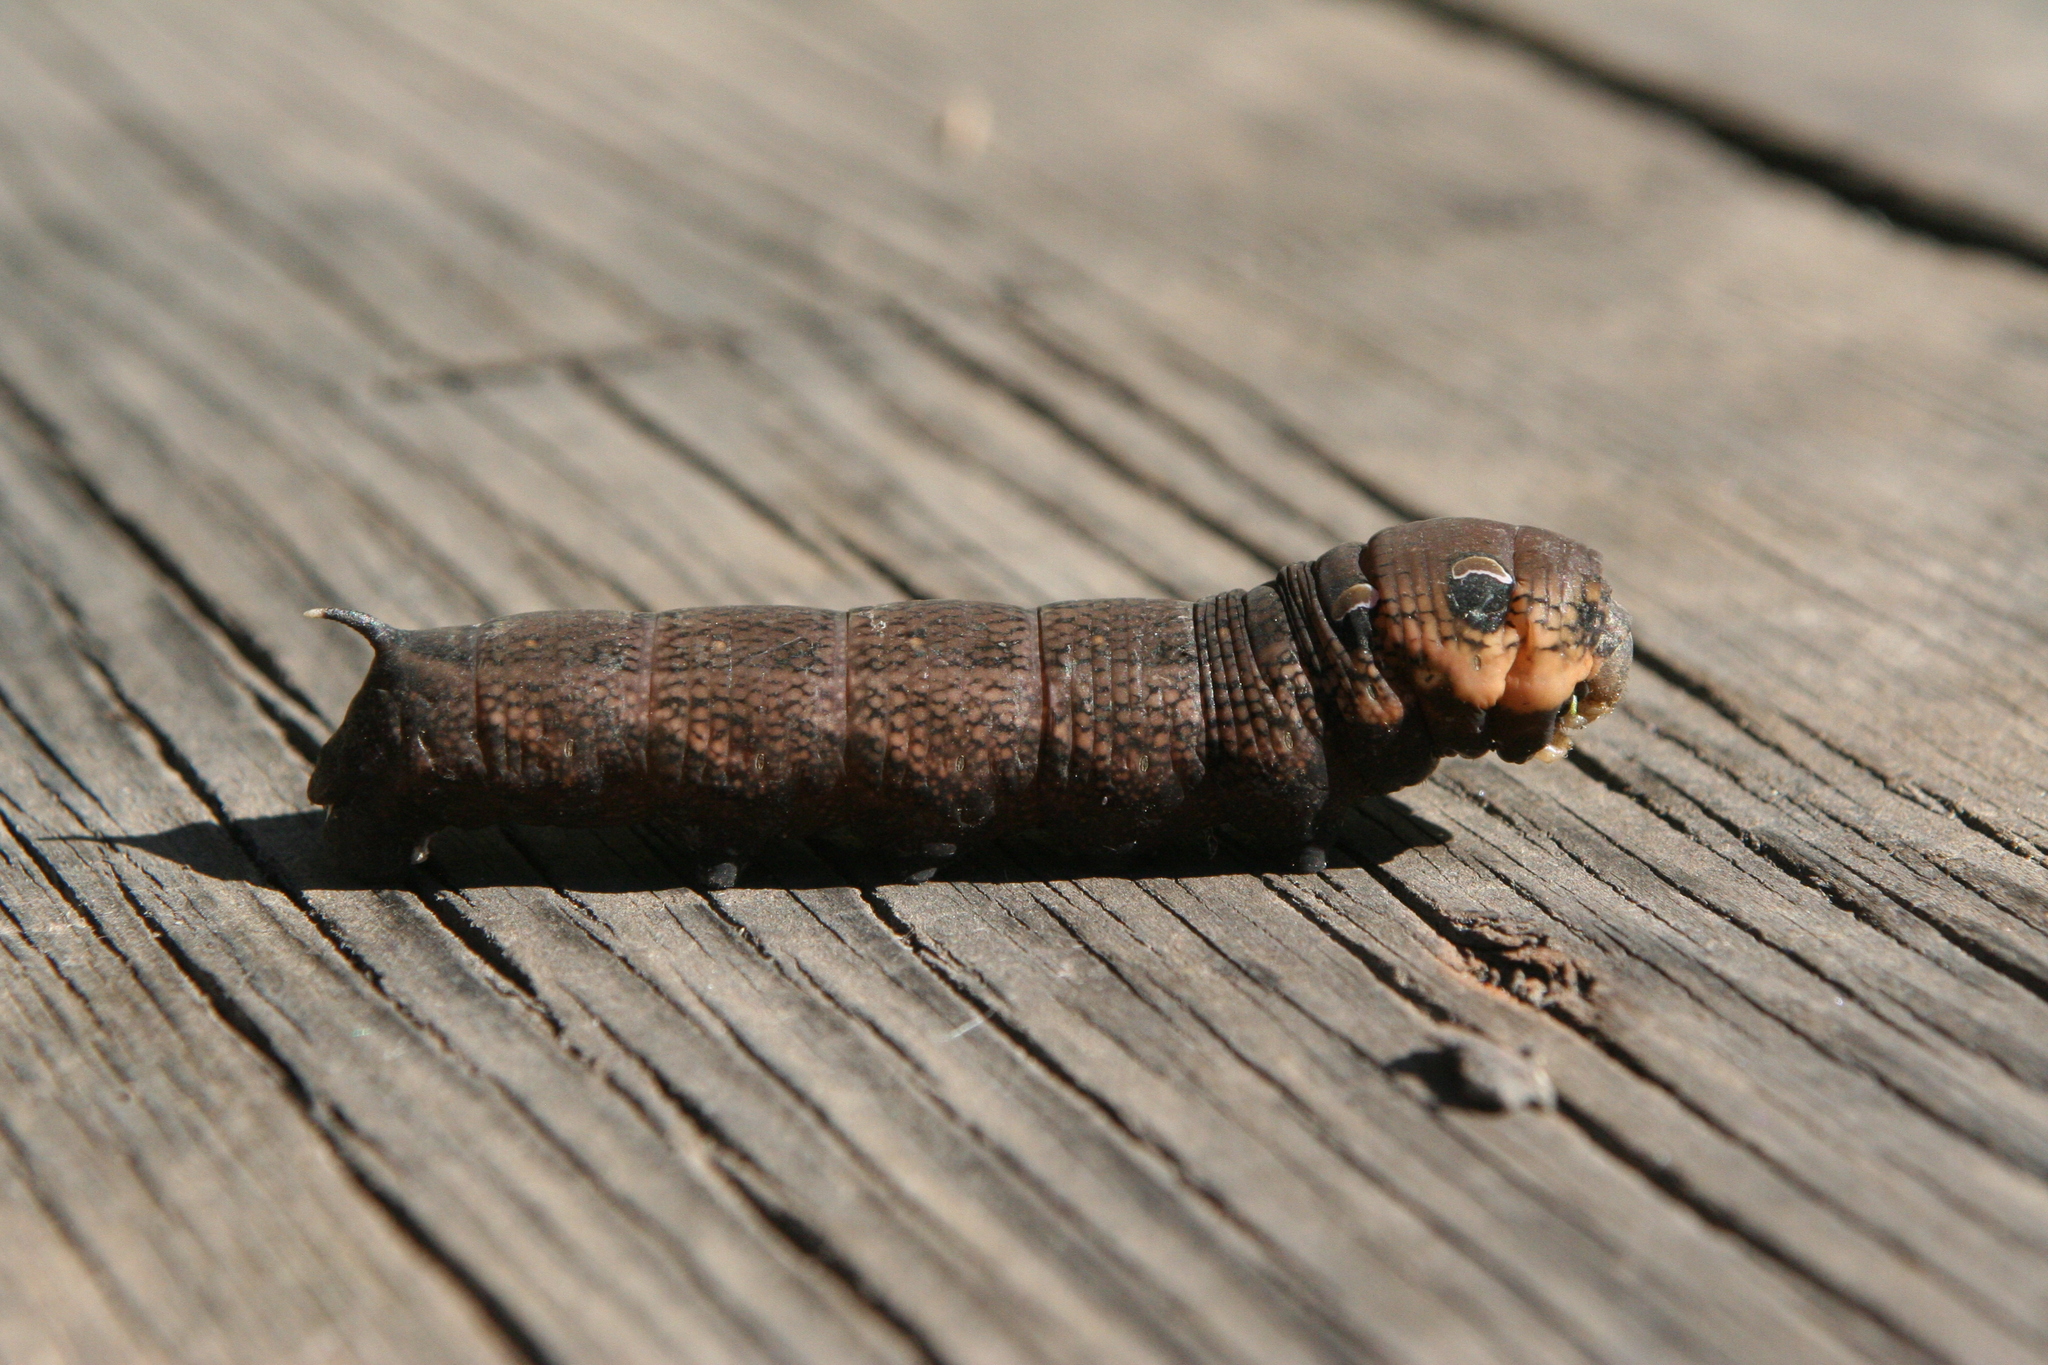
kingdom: Animalia
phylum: Arthropoda
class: Insecta
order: Lepidoptera
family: Sphingidae
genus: Deilephila
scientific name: Deilephila elpenor
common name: Elephant hawk-moth
